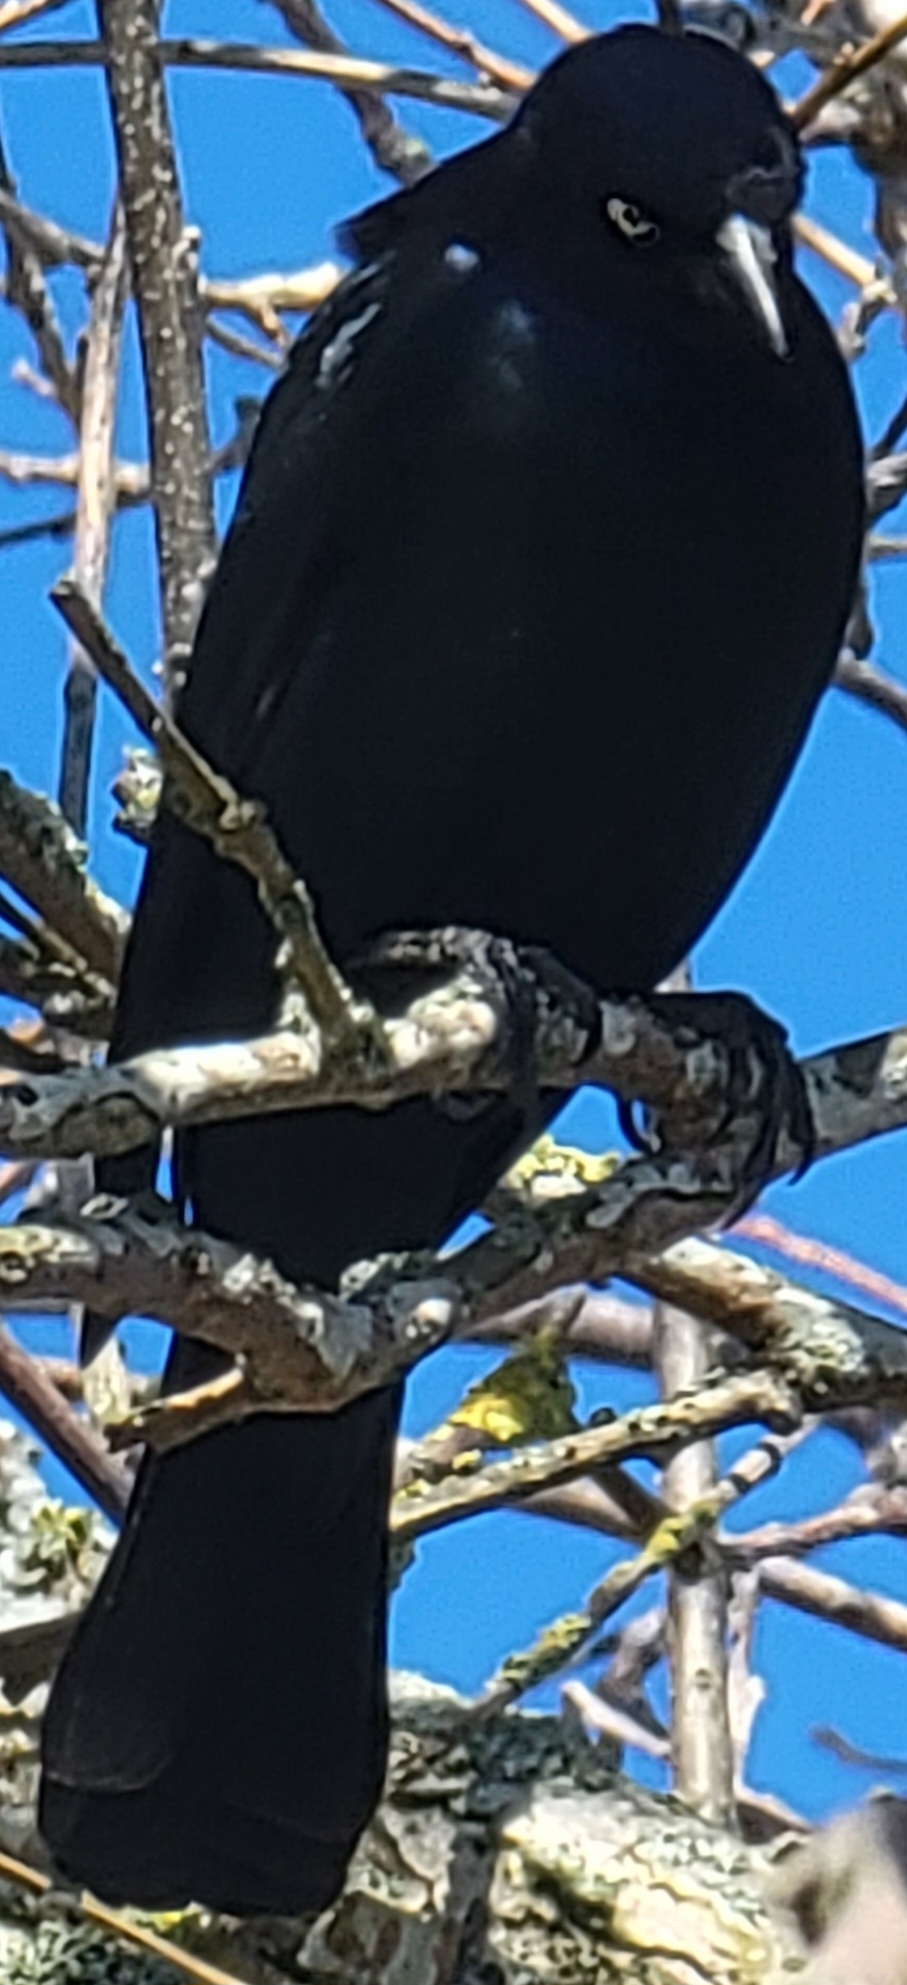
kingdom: Animalia
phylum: Chordata
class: Aves
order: Passeriformes
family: Icteridae
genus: Euphagus
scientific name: Euphagus cyanocephalus
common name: Brewer's blackbird
